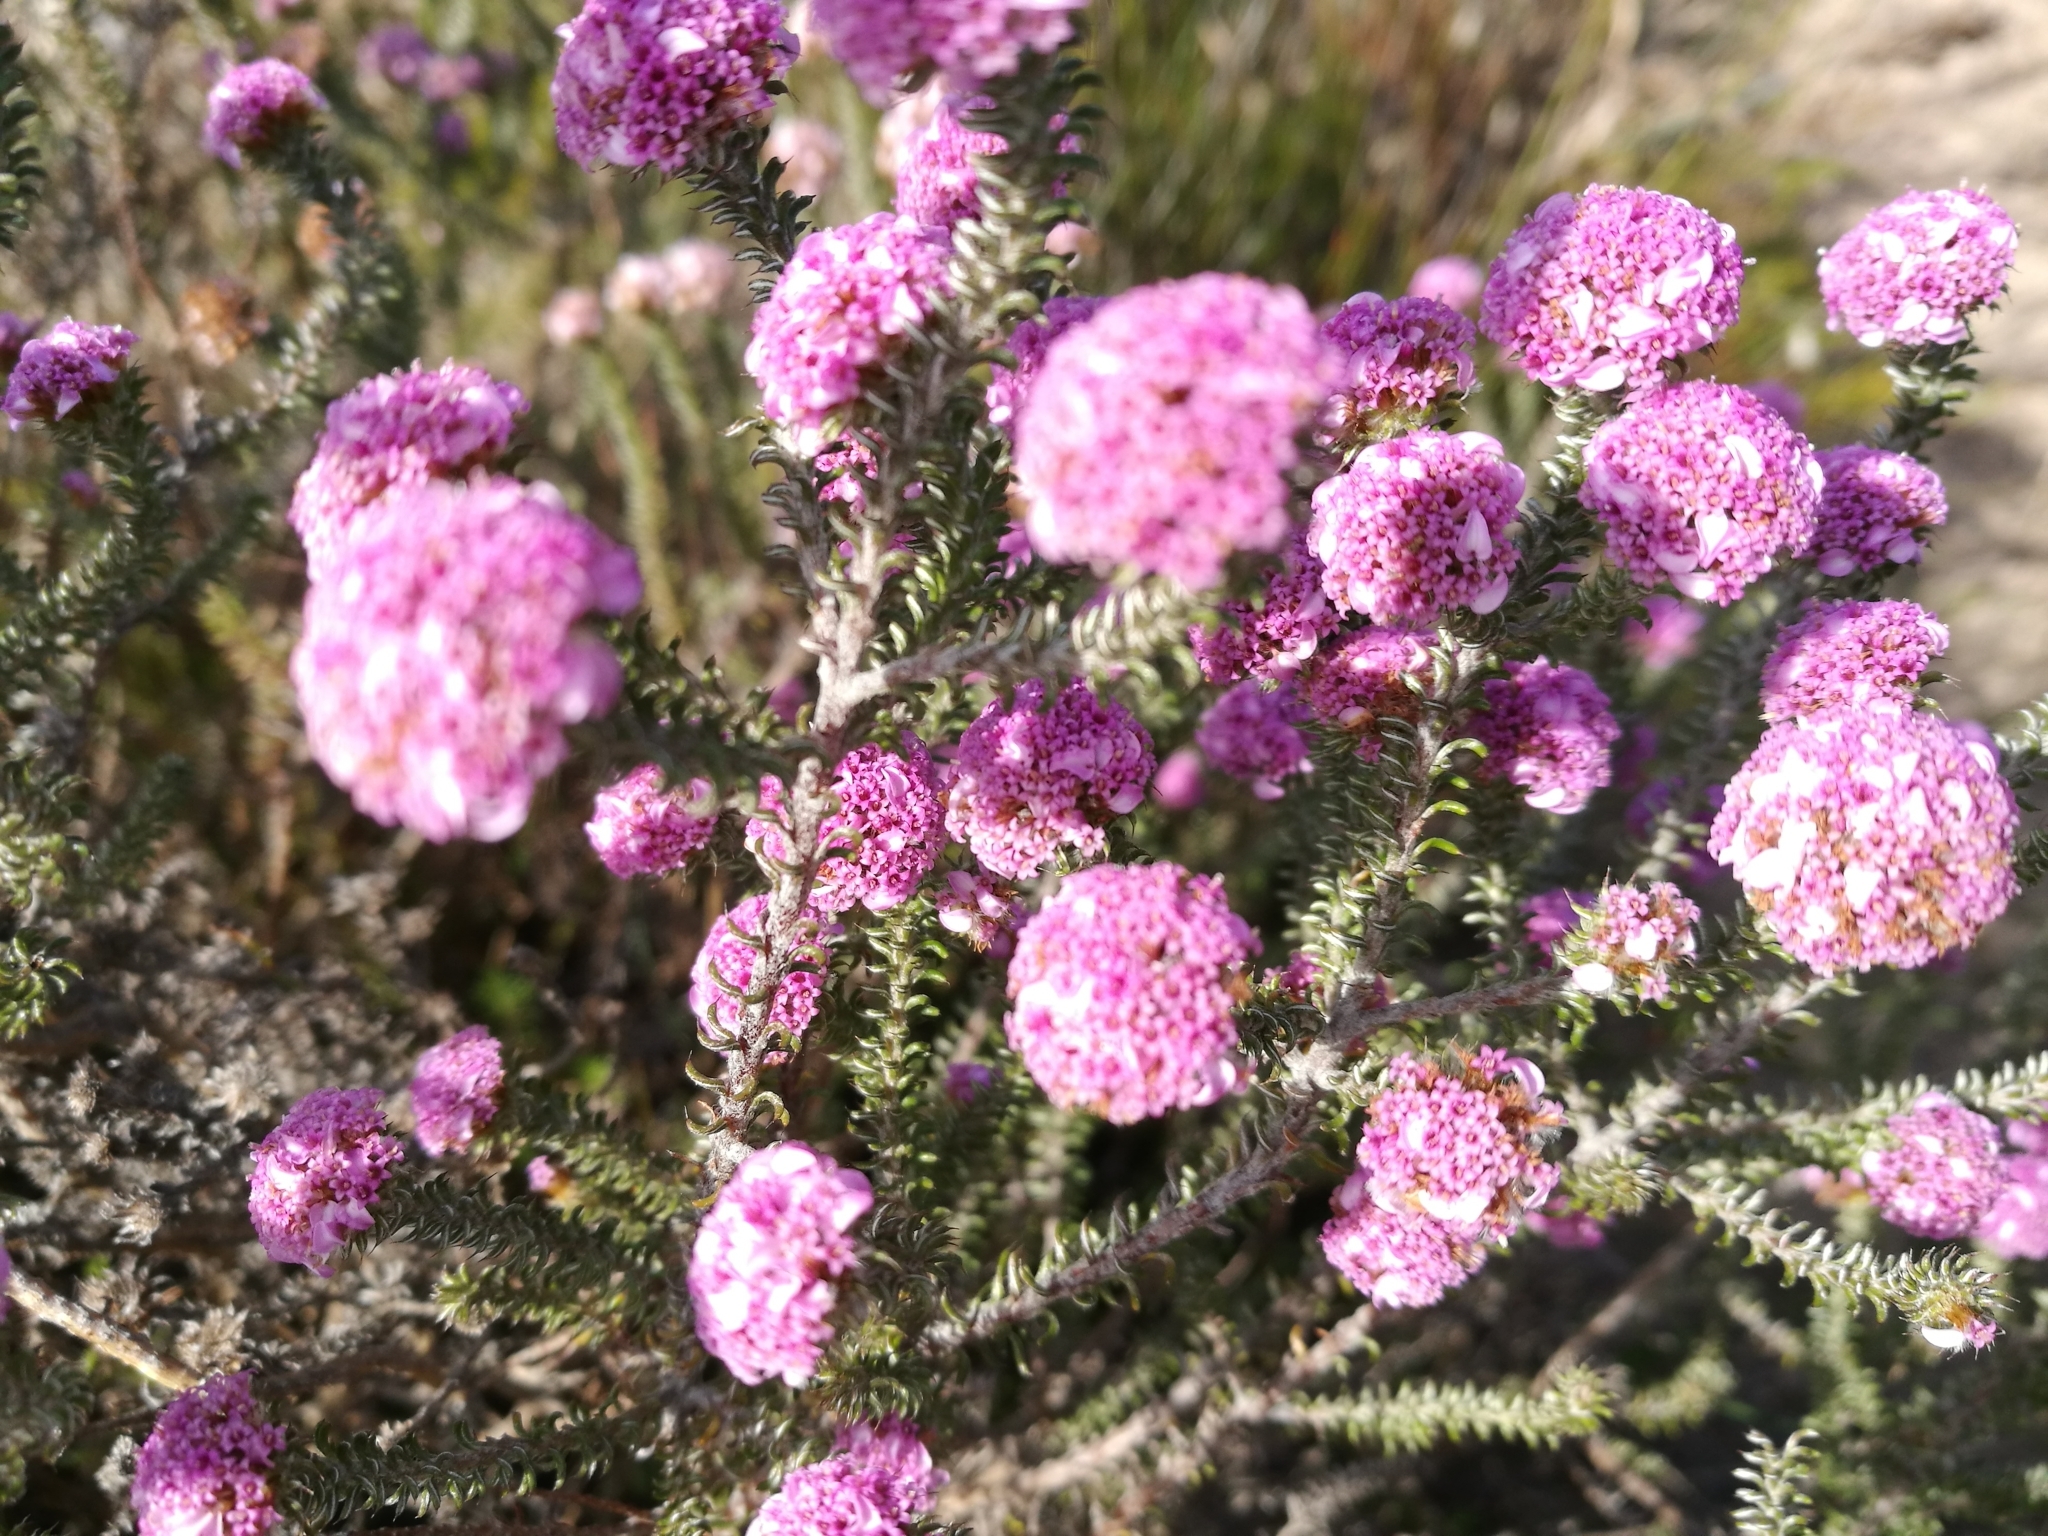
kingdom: Plantae
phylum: Tracheophyta
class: Magnoliopsida
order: Asterales
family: Asteraceae
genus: Disparago
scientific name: Disparago tortilis
